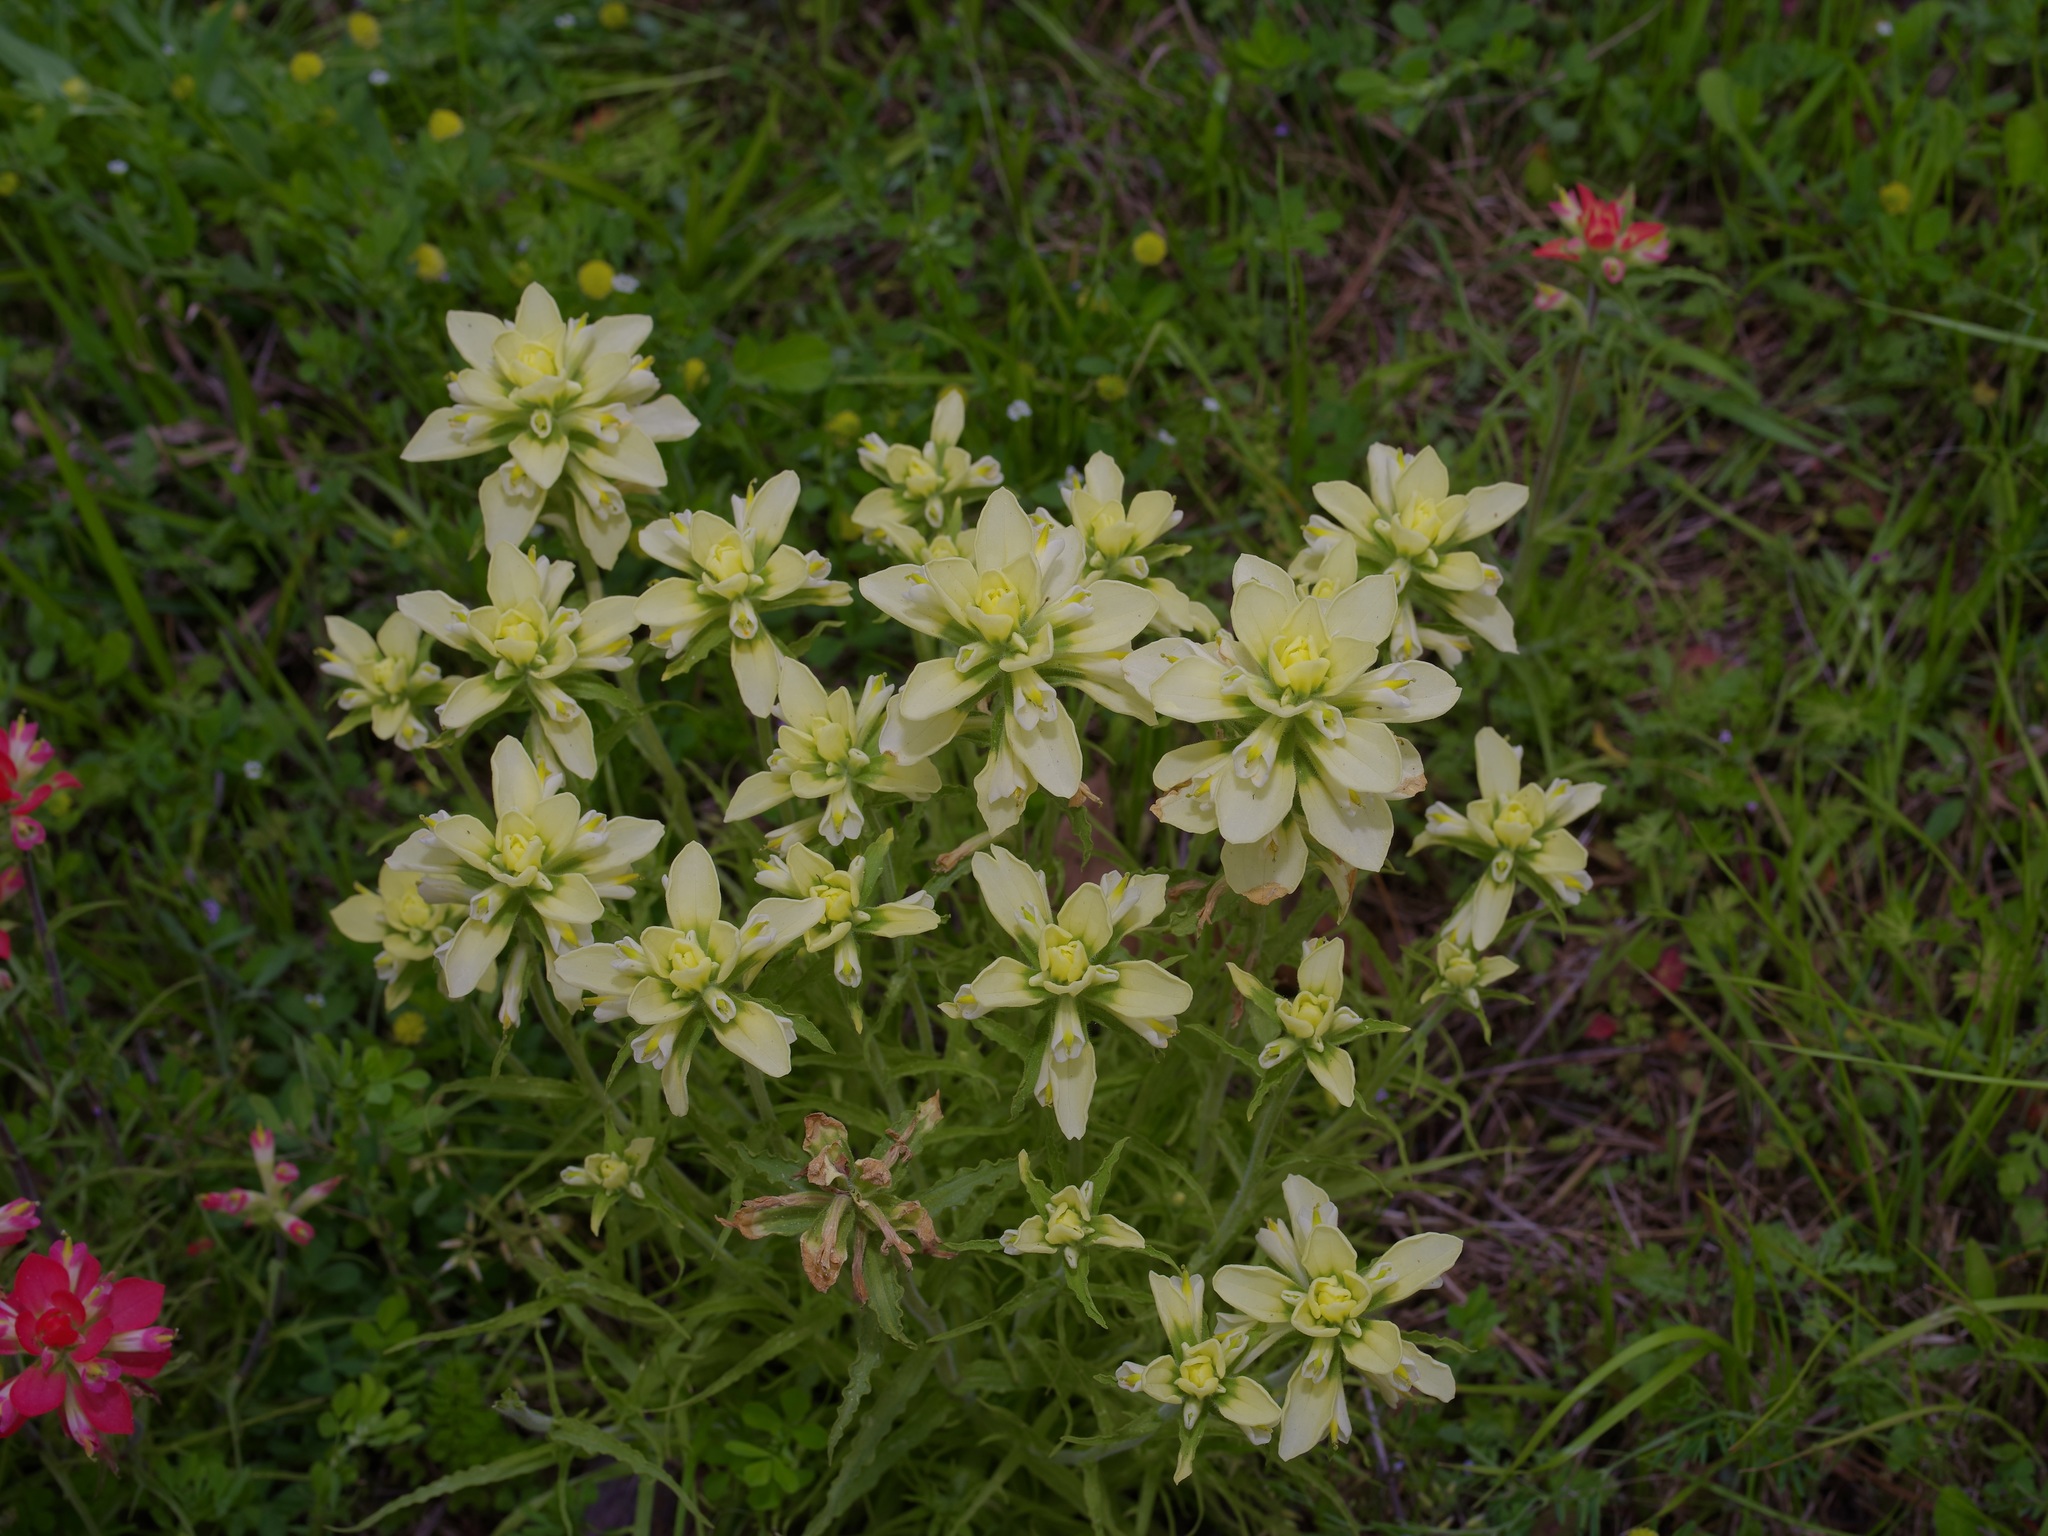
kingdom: Plantae
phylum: Tracheophyta
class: Magnoliopsida
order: Lamiales
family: Orobanchaceae
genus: Castilleja
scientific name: Castilleja indivisa
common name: Texas paintbrush
